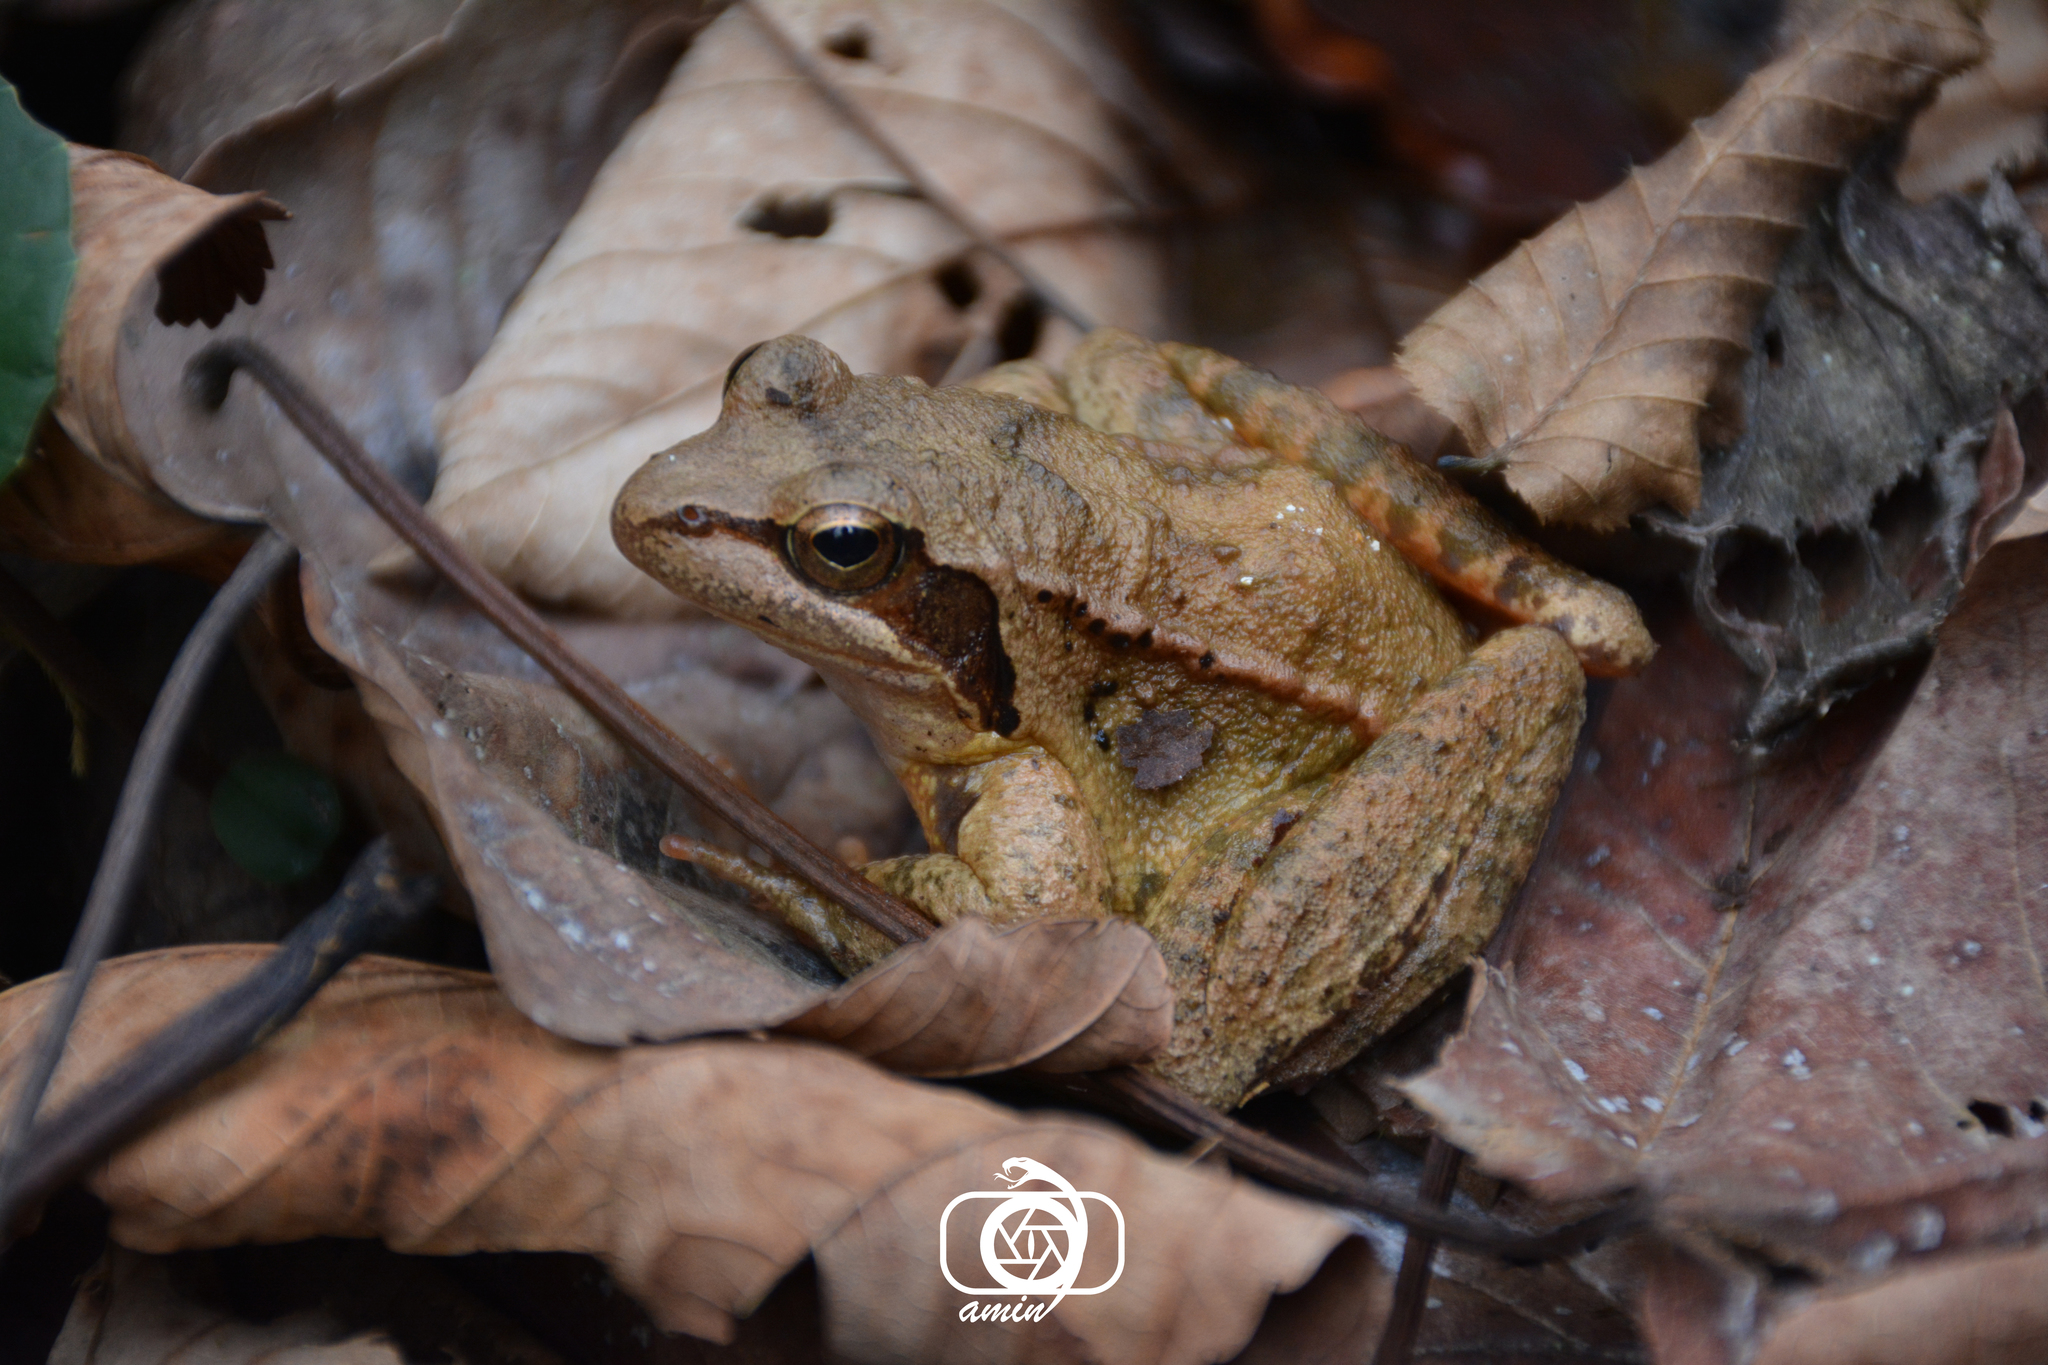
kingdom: Animalia
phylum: Chordata
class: Amphibia
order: Anura
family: Ranidae
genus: Rana
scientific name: Rana pseudodalmatina
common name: Hyrcanian frog
